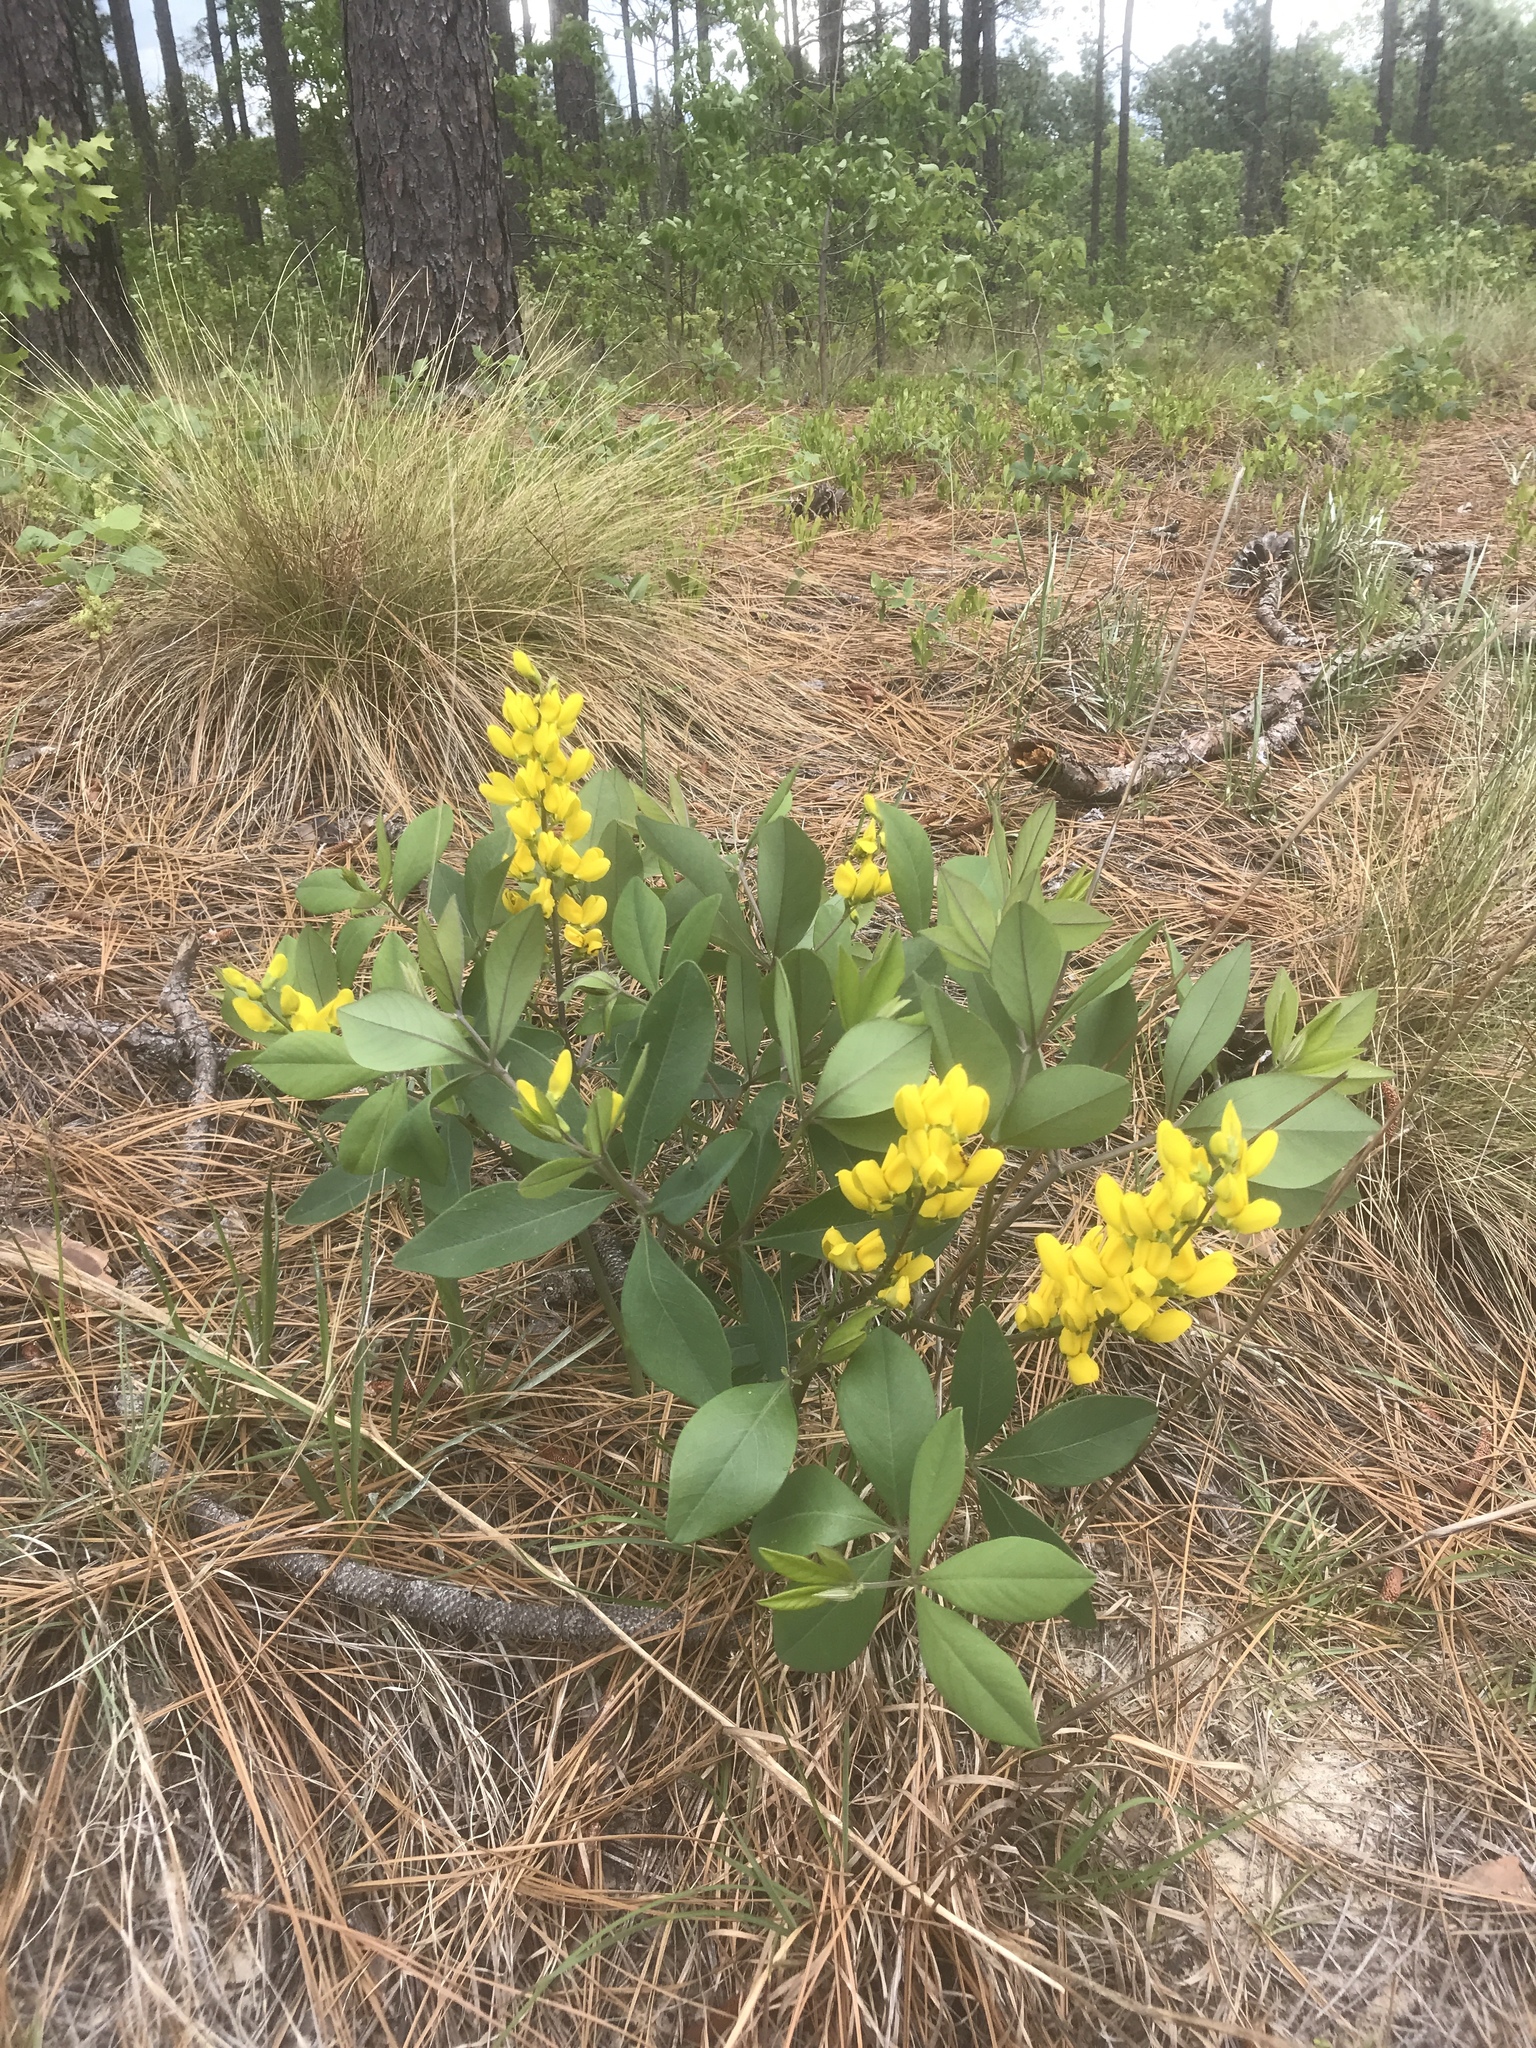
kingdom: Plantae
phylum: Tracheophyta
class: Magnoliopsida
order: Fabales
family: Fabaceae
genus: Baptisia
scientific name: Baptisia cinerea
